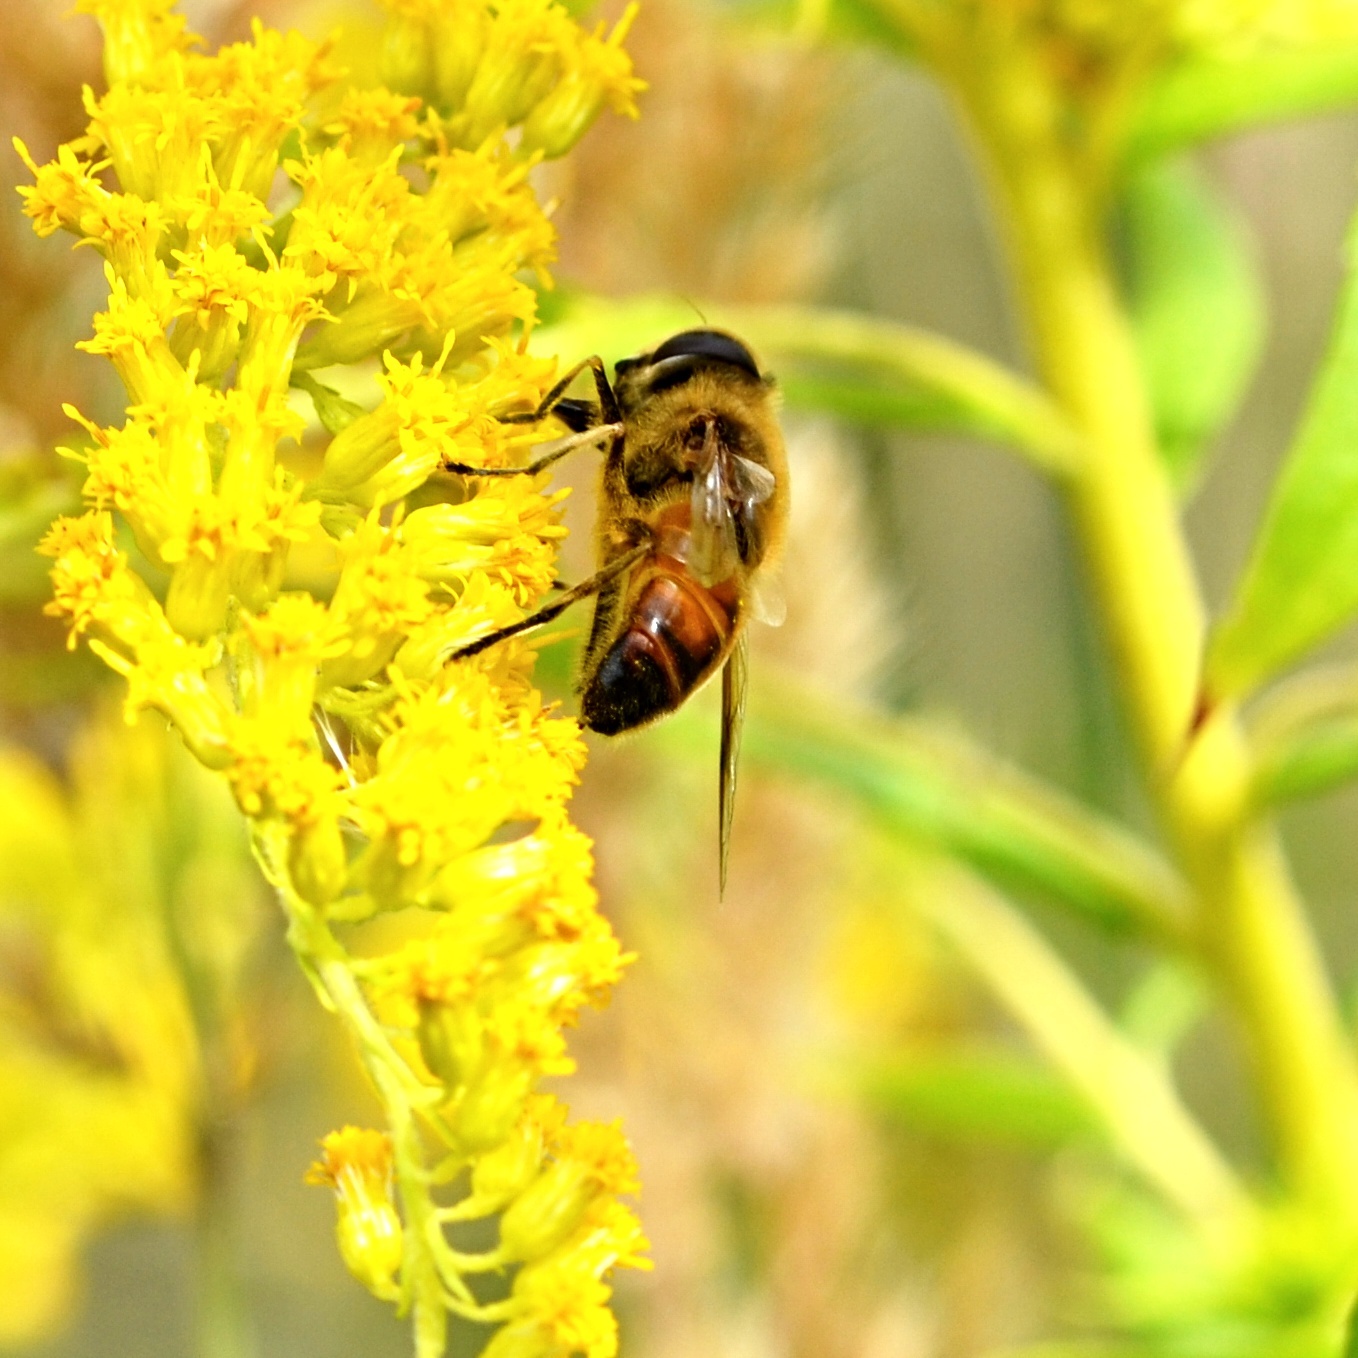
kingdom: Animalia
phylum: Arthropoda
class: Insecta
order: Diptera
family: Syrphidae
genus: Eristalis
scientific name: Eristalis tenax
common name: Drone fly
